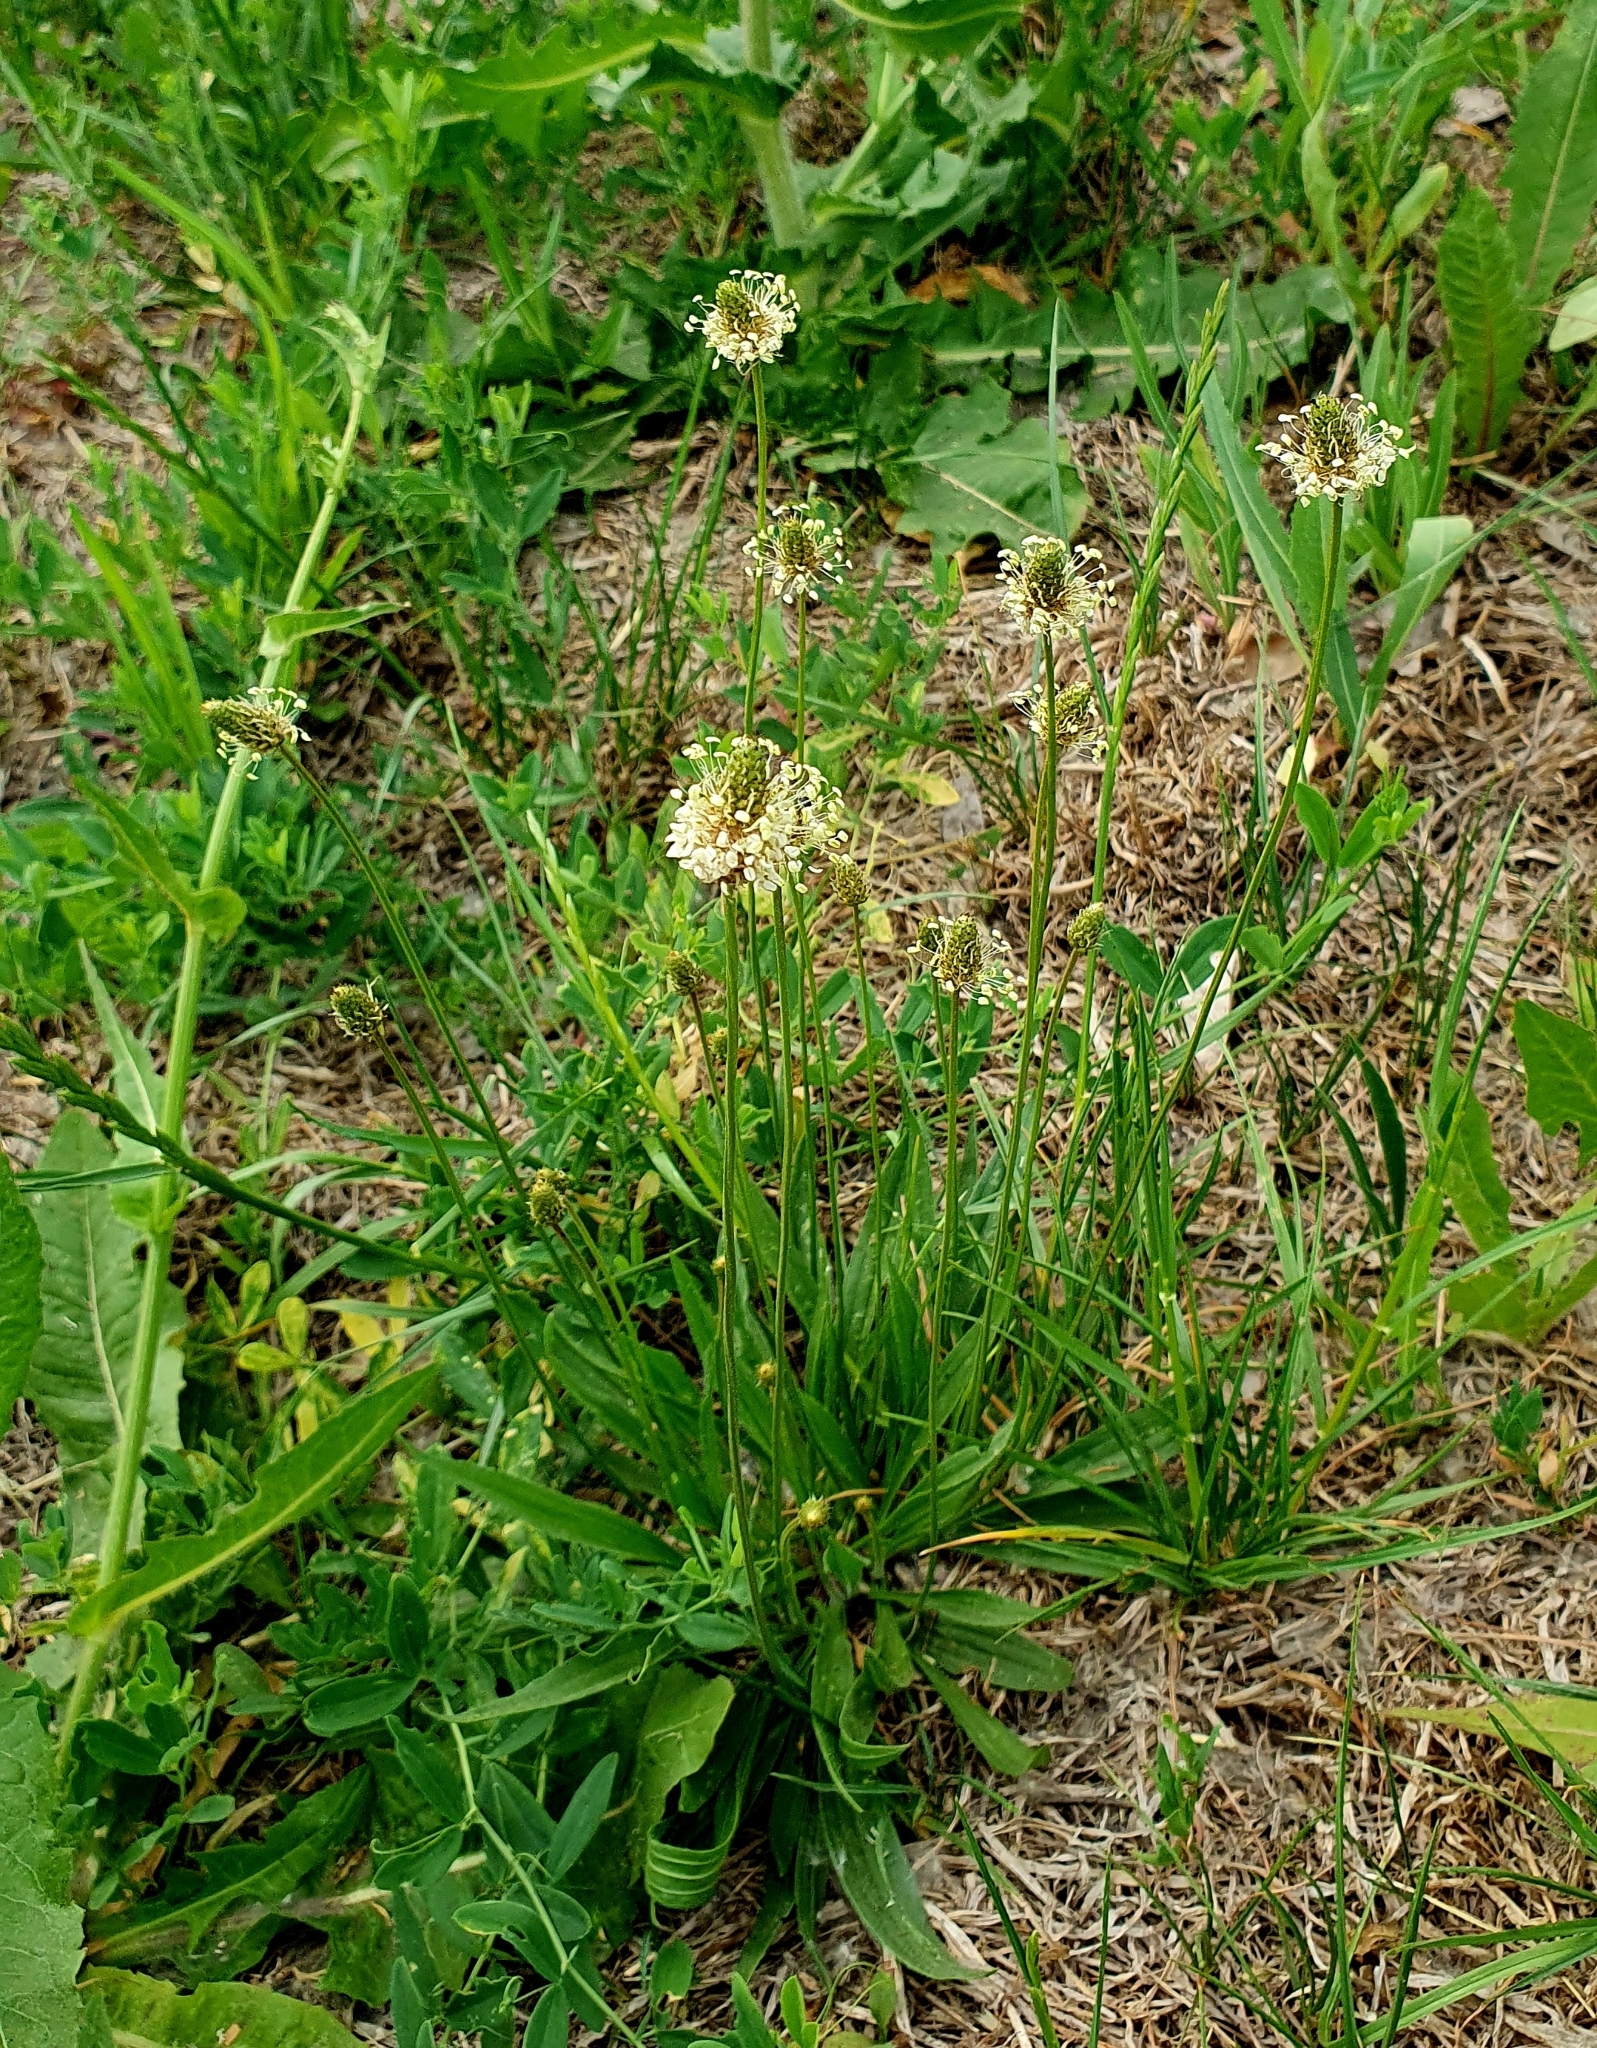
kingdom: Plantae
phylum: Tracheophyta
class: Magnoliopsida
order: Lamiales
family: Plantaginaceae
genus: Plantago
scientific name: Plantago lanceolata
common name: Ribwort plantain
